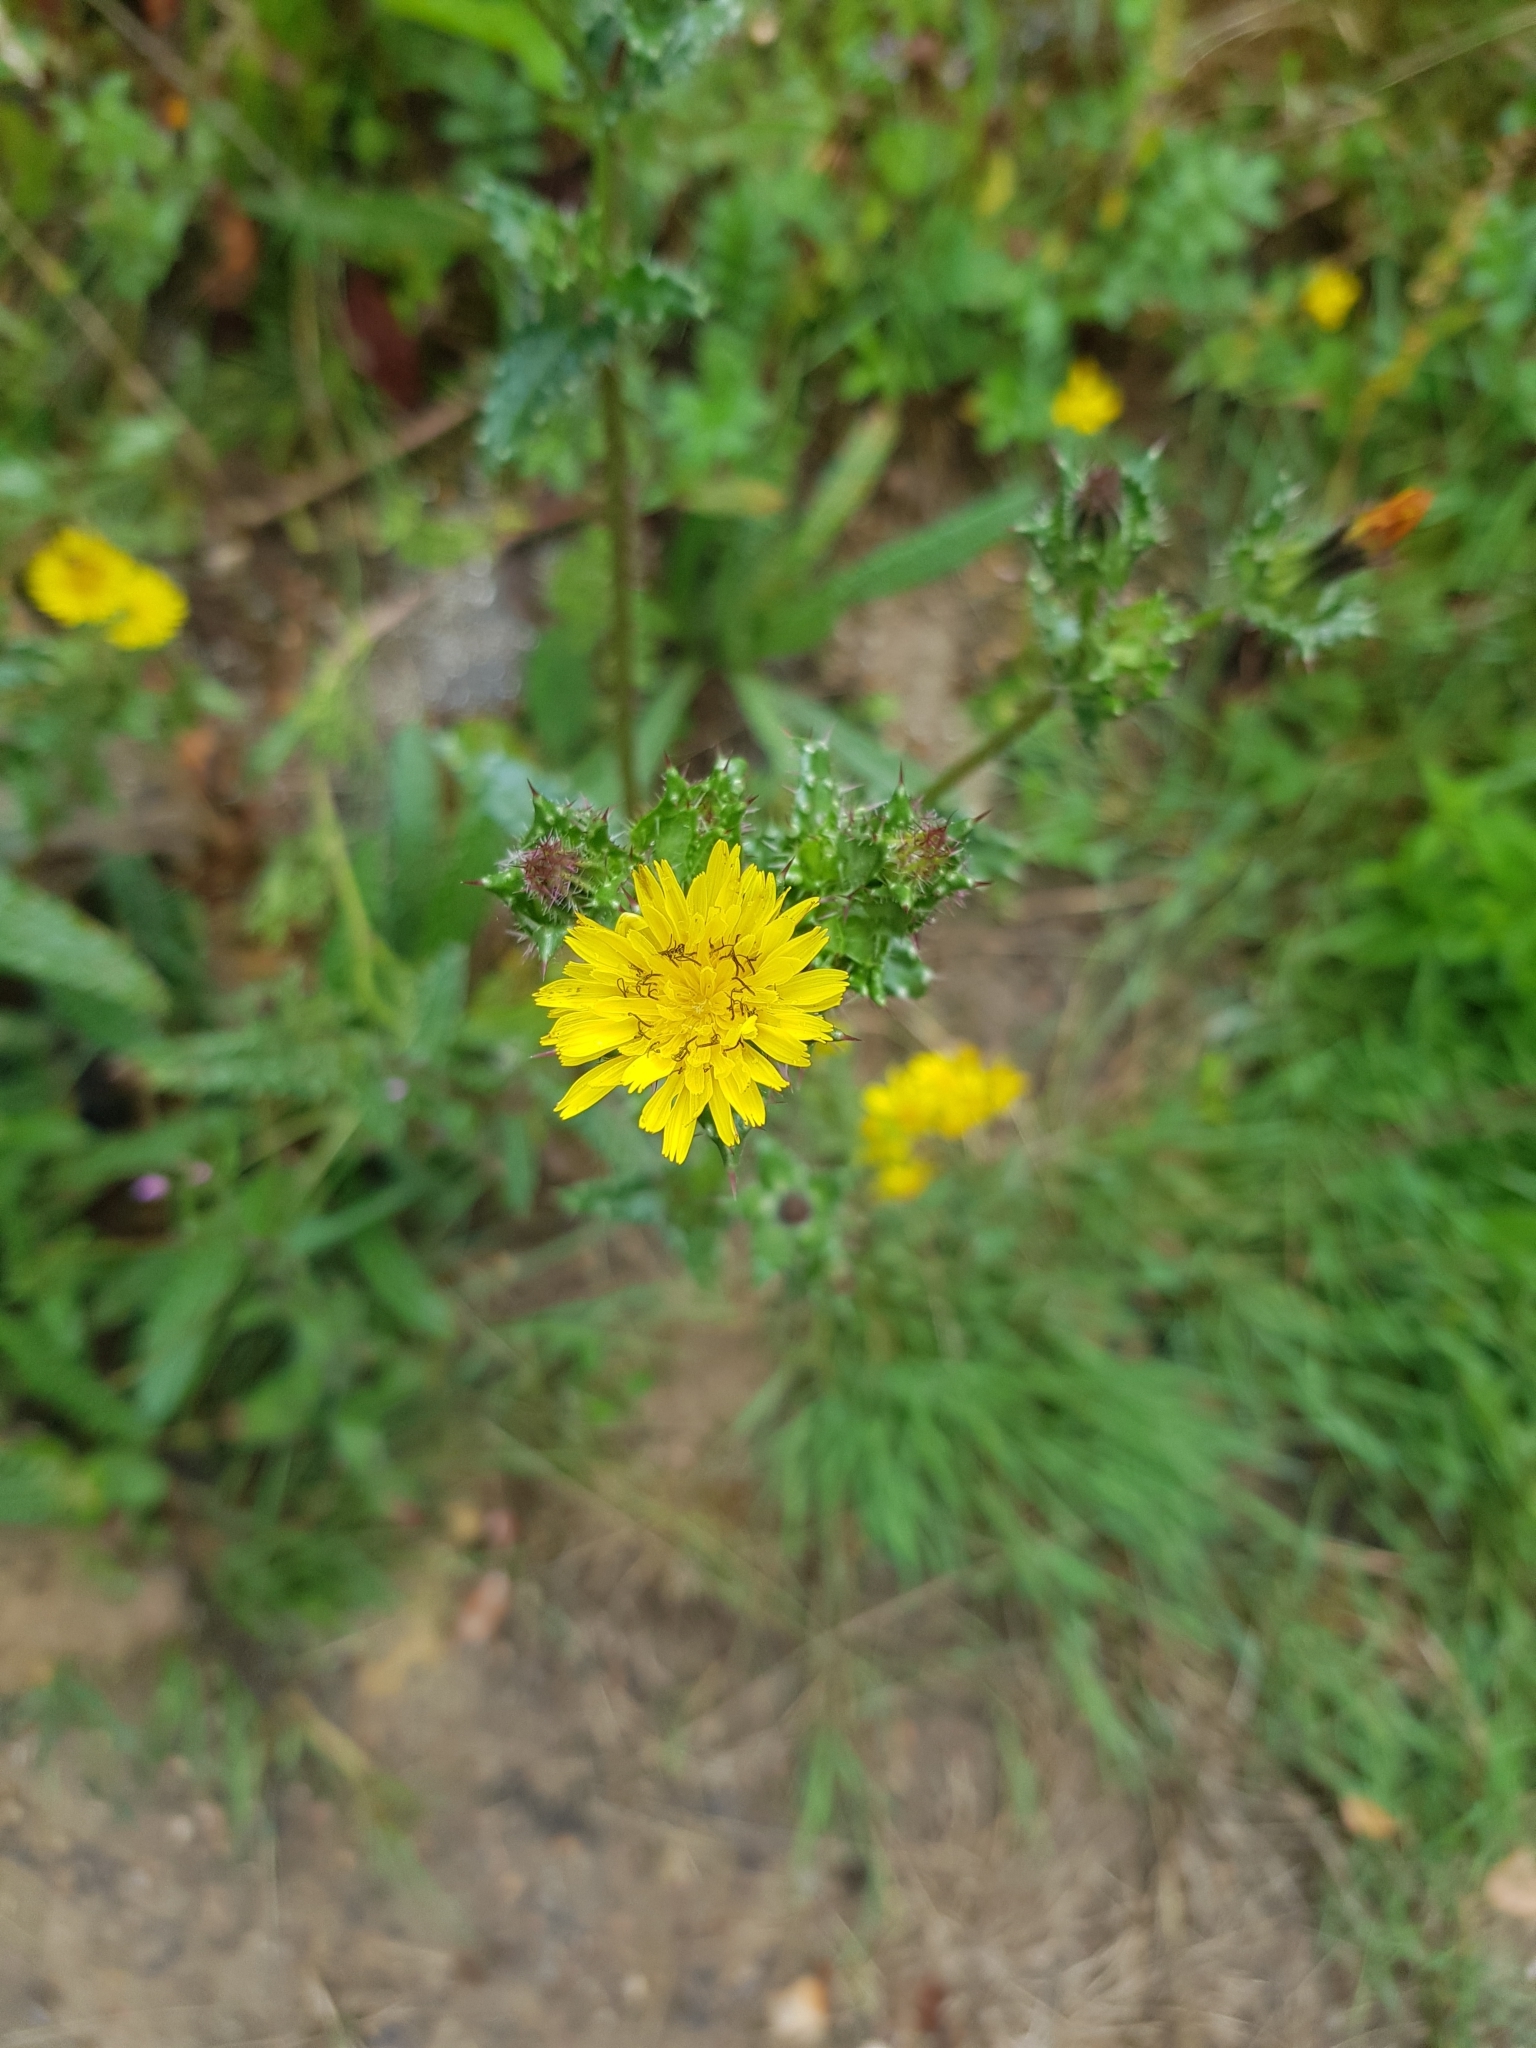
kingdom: Plantae
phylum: Tracheophyta
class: Magnoliopsida
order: Asterales
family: Asteraceae
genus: Helminthotheca
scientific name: Helminthotheca echioides
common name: Ox-tongue
